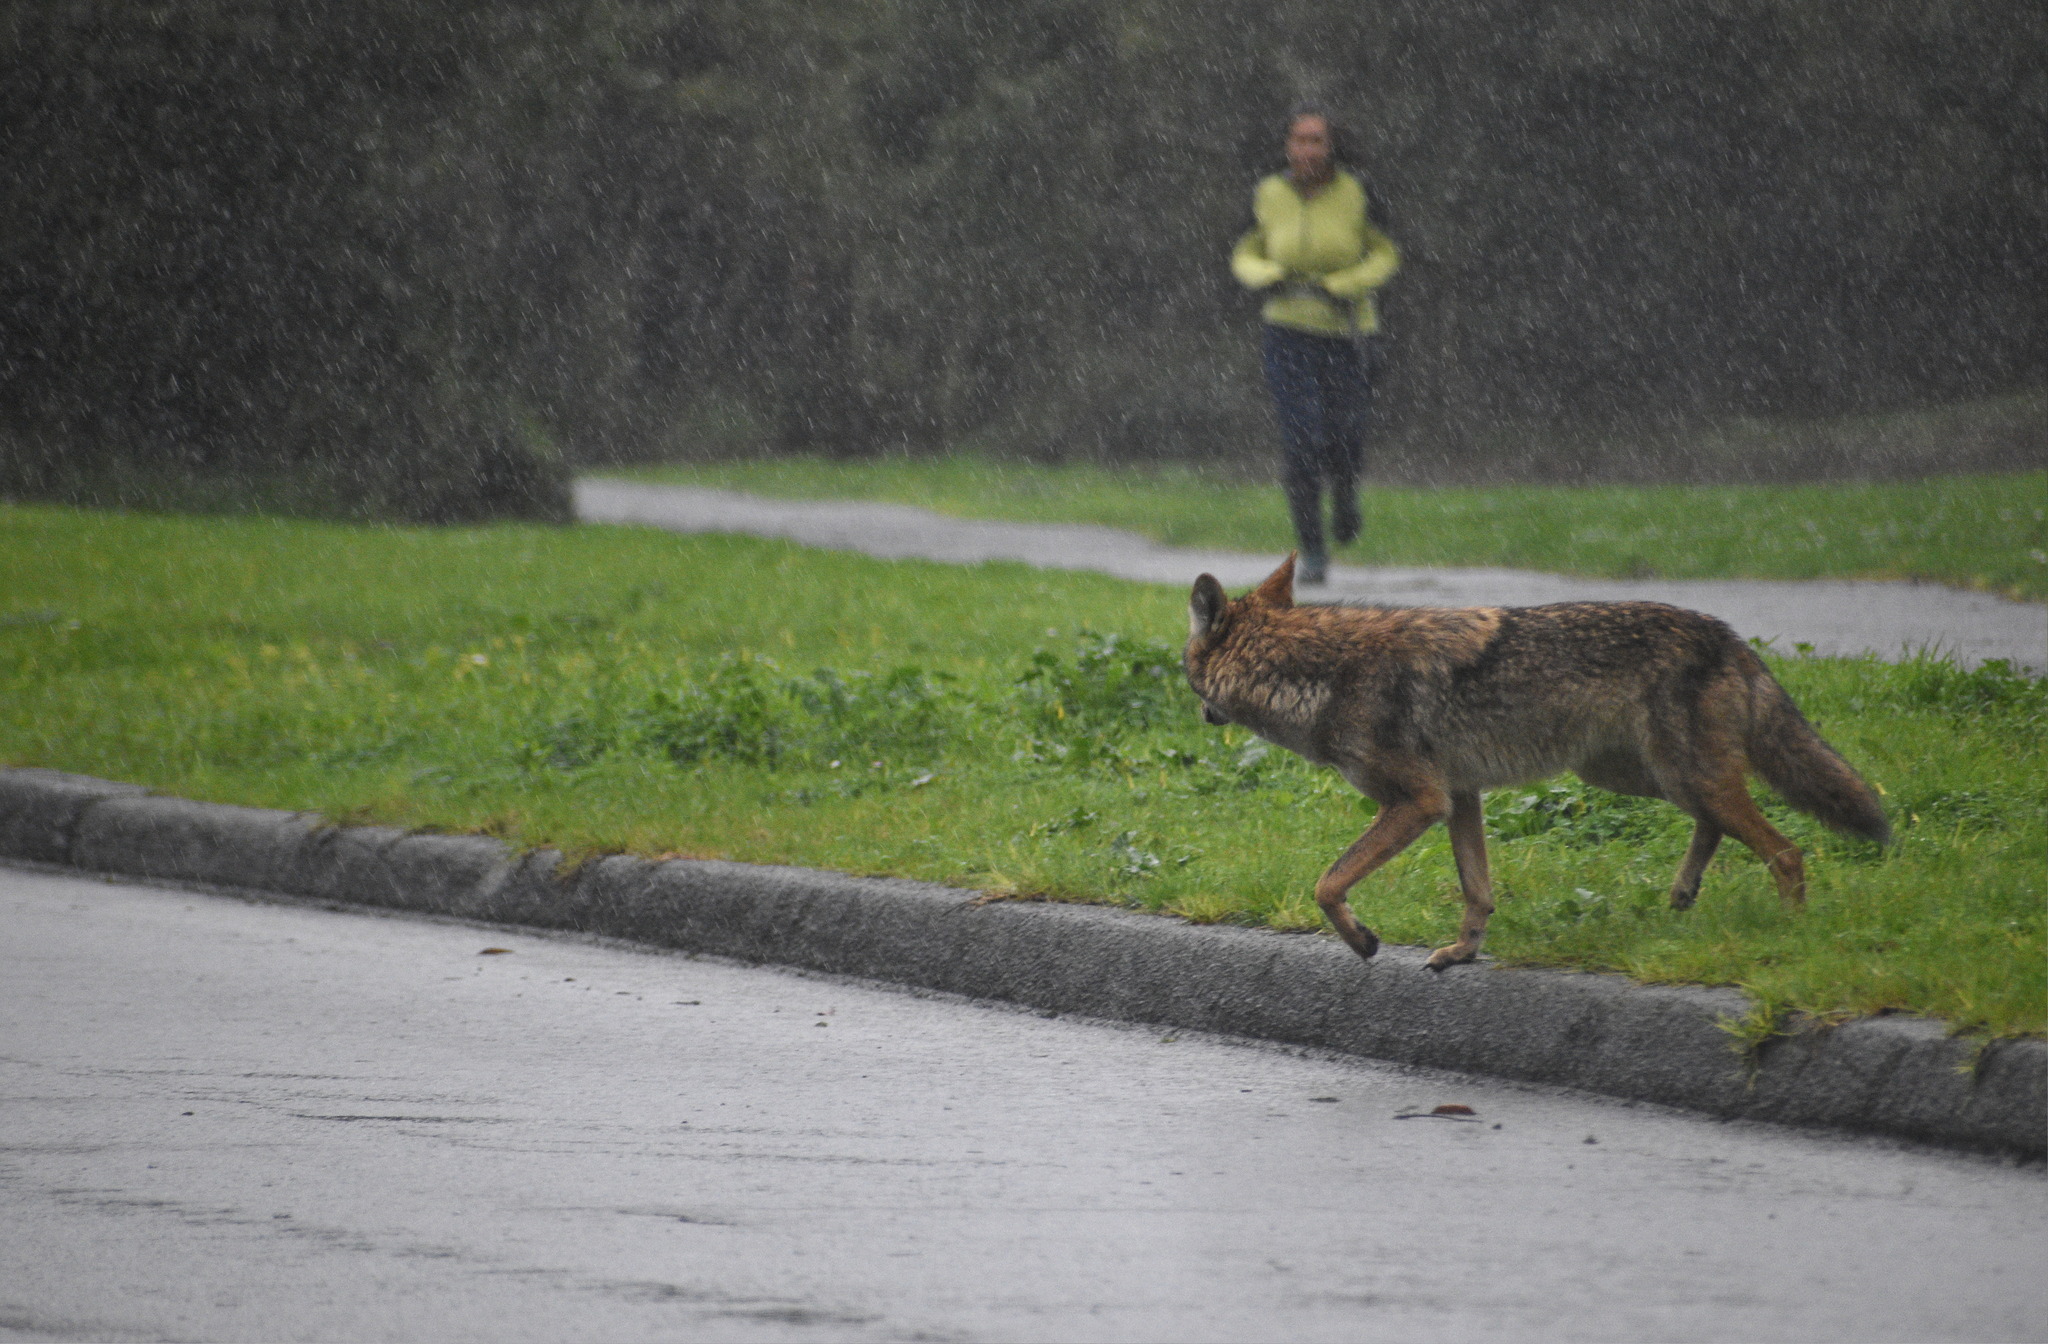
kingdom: Animalia
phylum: Chordata
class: Mammalia
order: Carnivora
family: Canidae
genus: Canis
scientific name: Canis latrans
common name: Coyote
